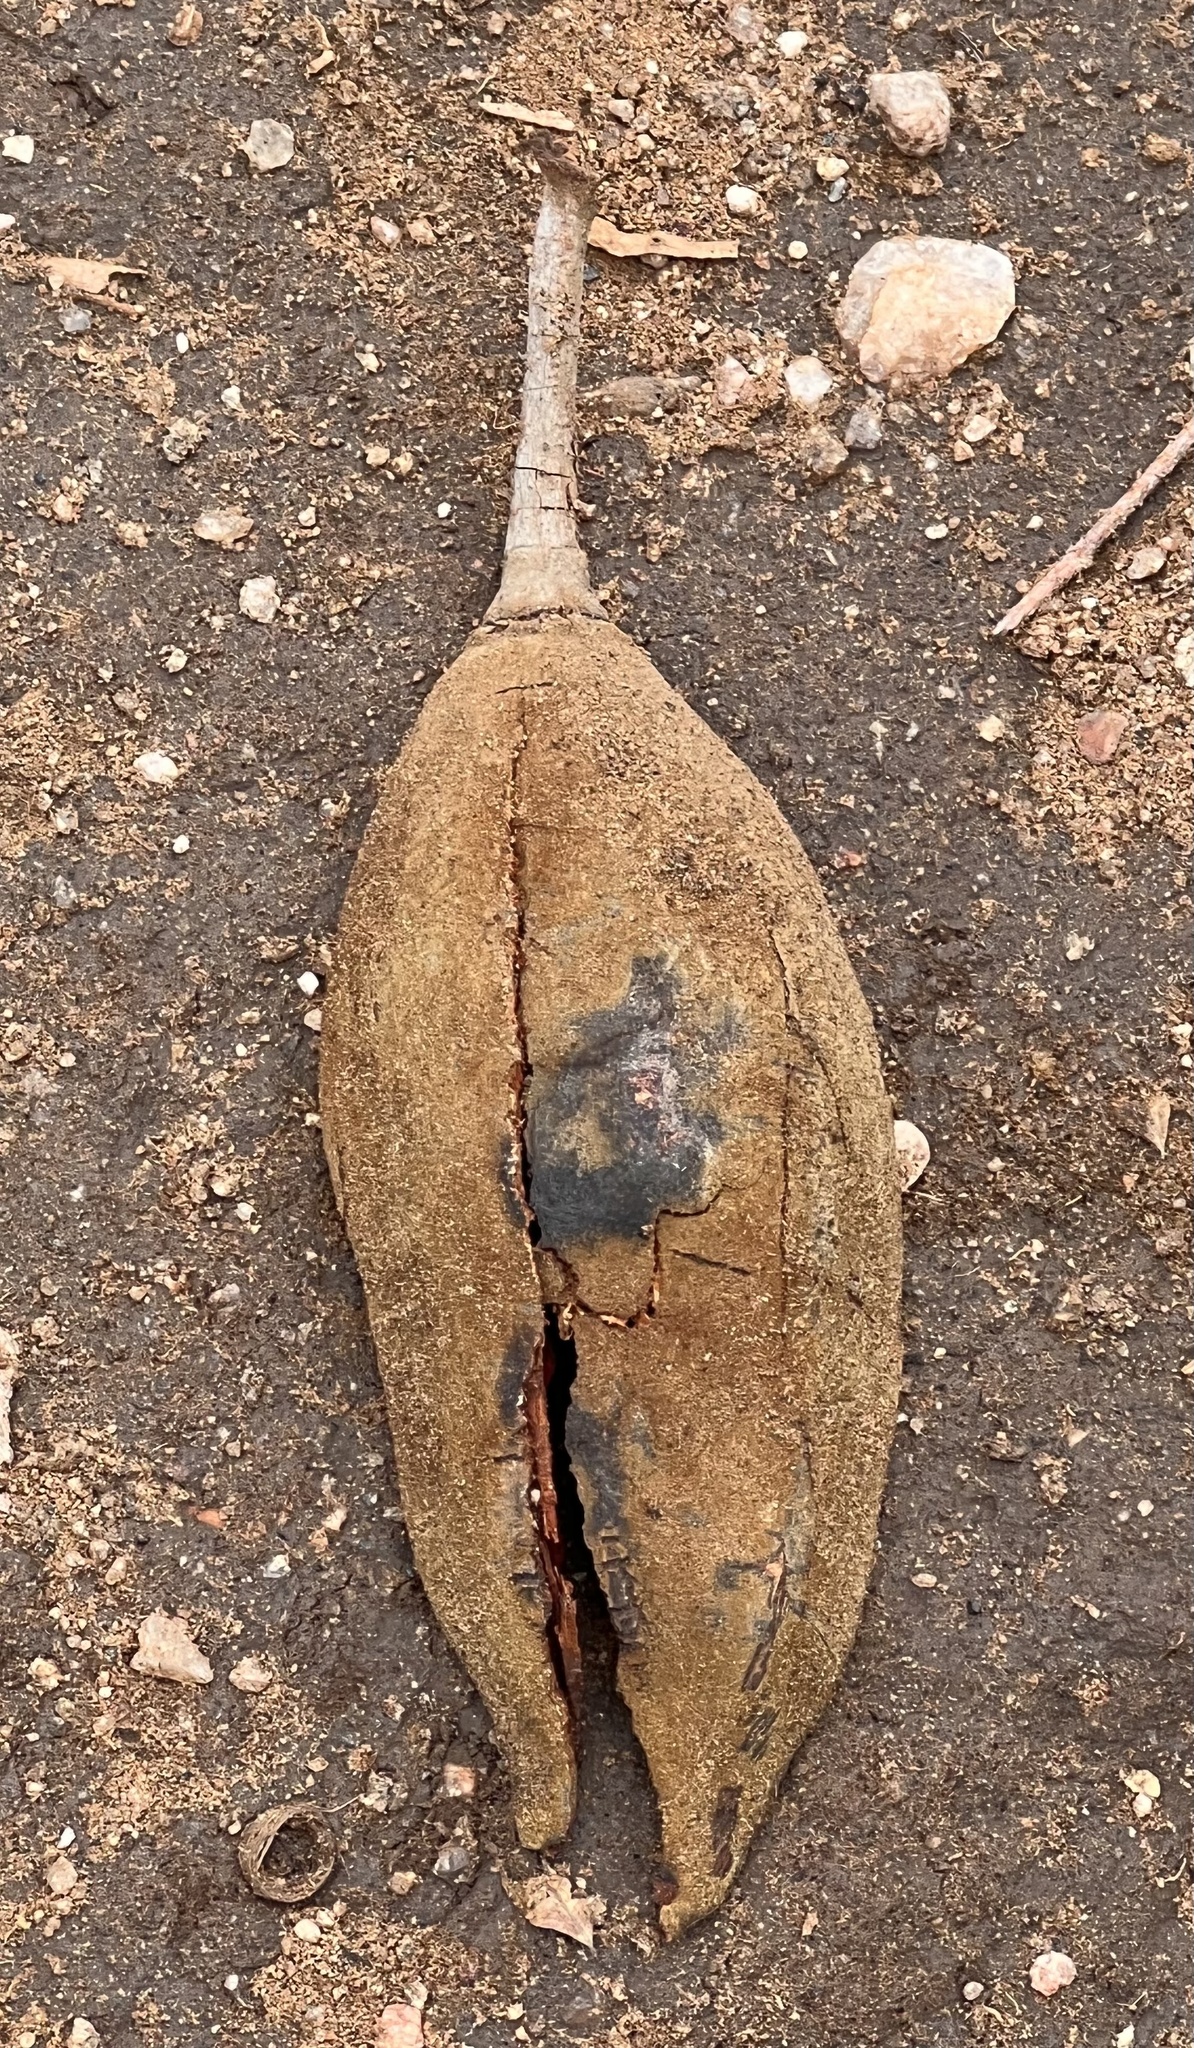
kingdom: Plantae
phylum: Tracheophyta
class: Magnoliopsida
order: Malvales
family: Malvaceae
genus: Adansonia
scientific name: Adansonia digitata
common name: Dead-rat-tree
